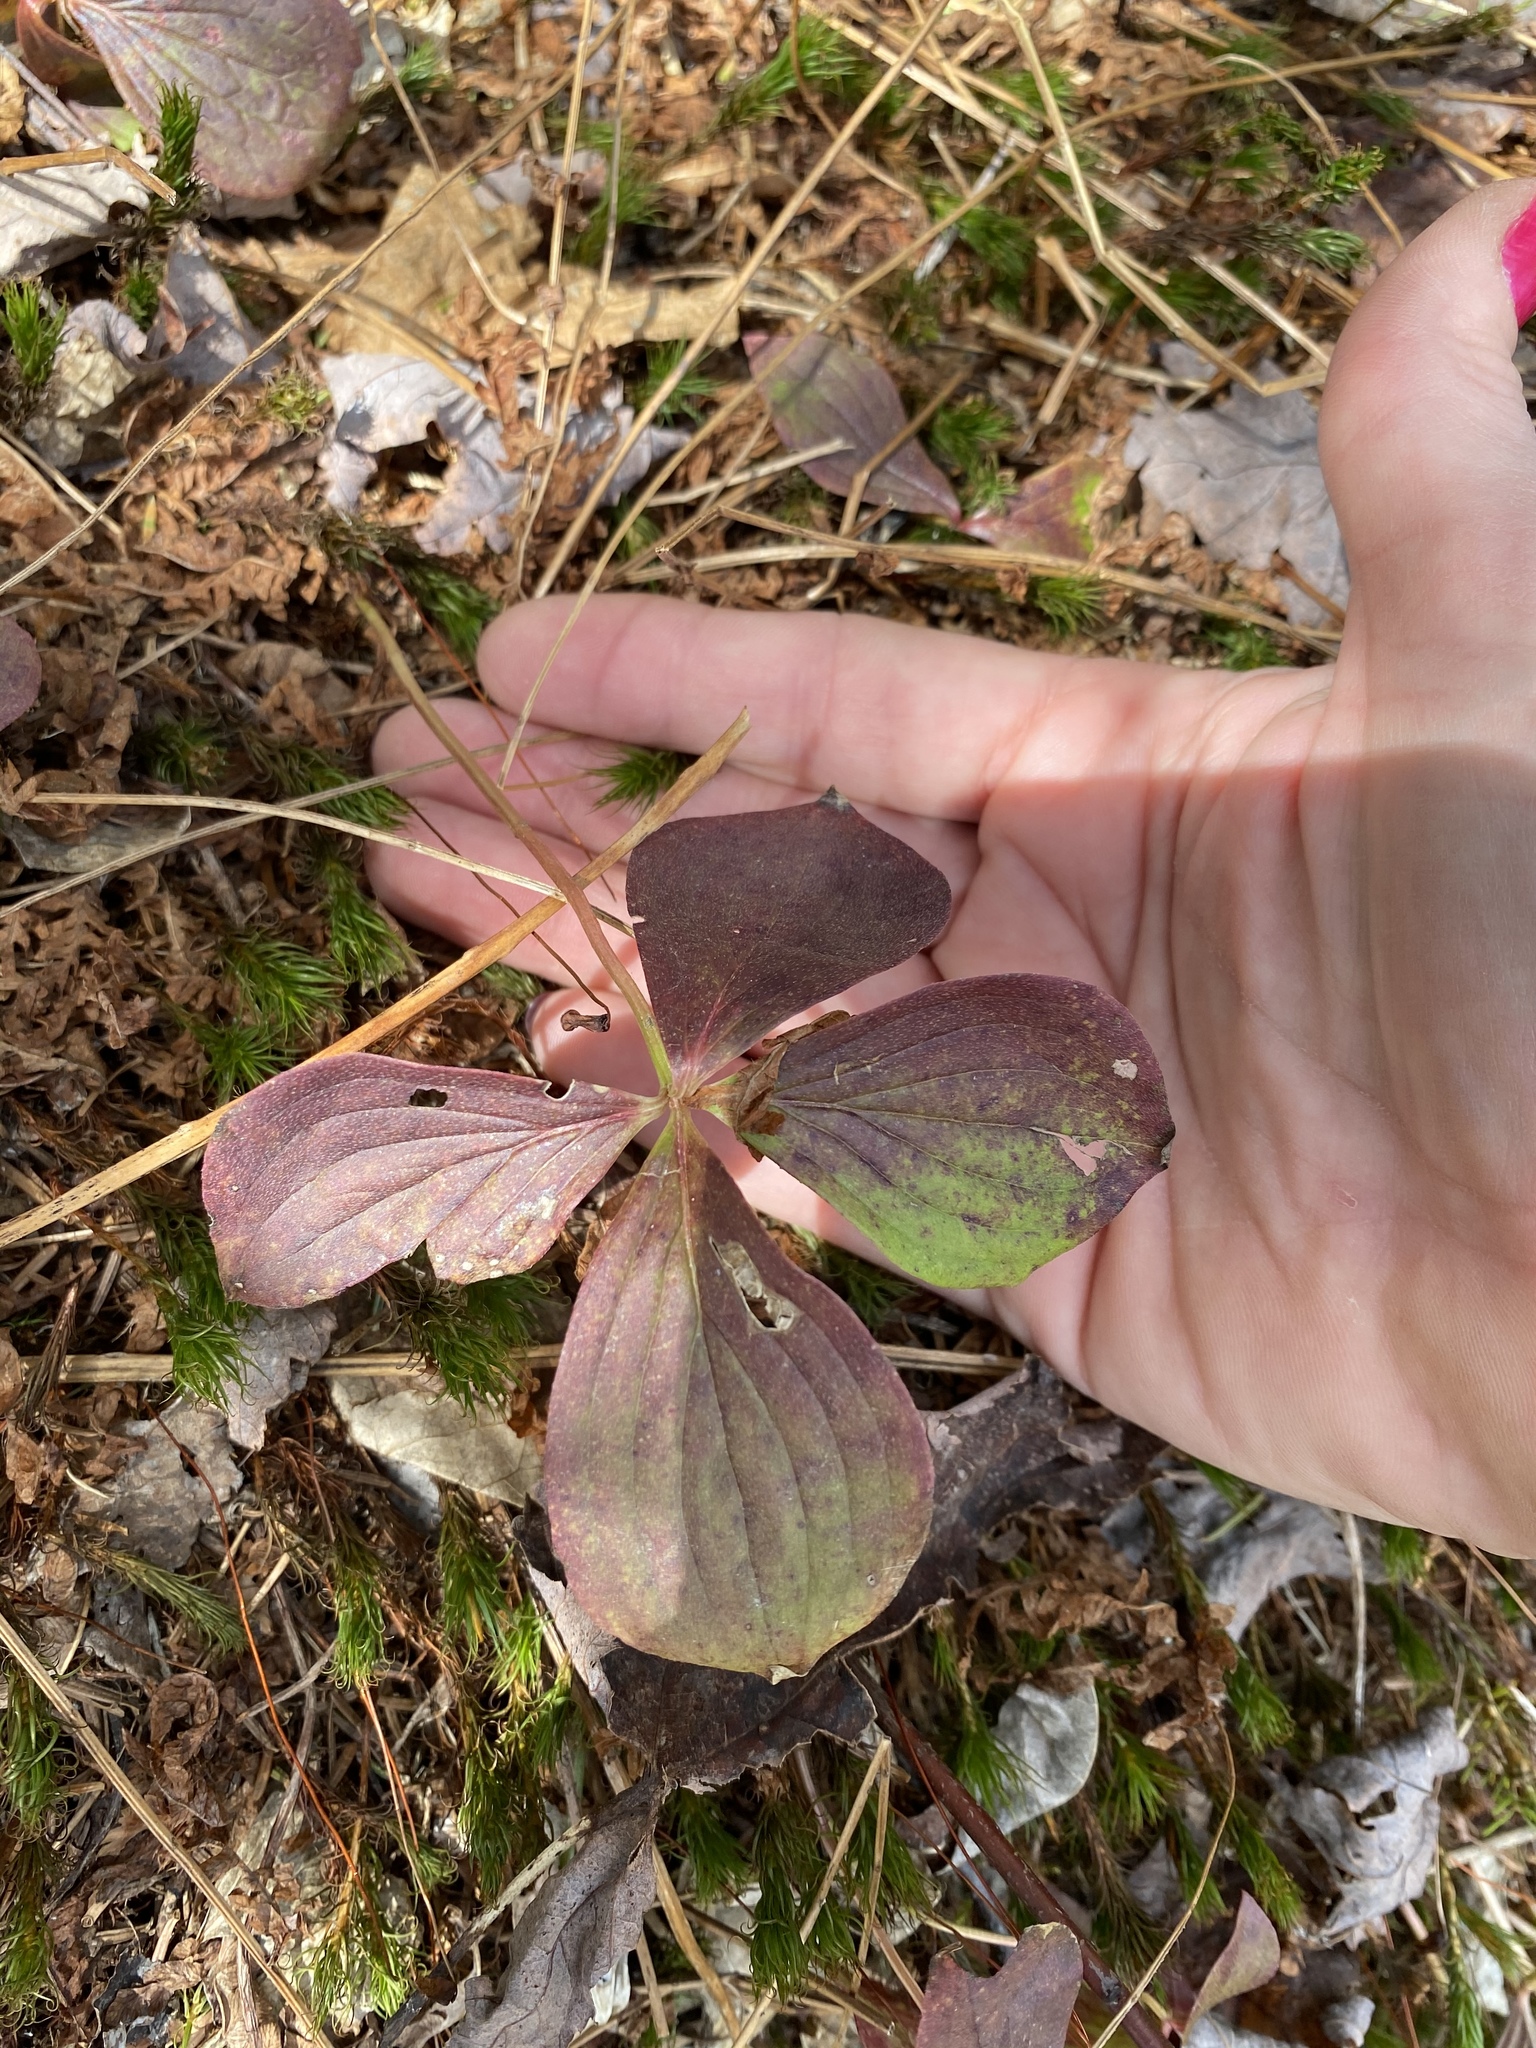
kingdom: Plantae
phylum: Tracheophyta
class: Magnoliopsida
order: Cornales
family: Cornaceae
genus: Cornus
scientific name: Cornus canadensis
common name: Creeping dogwood
